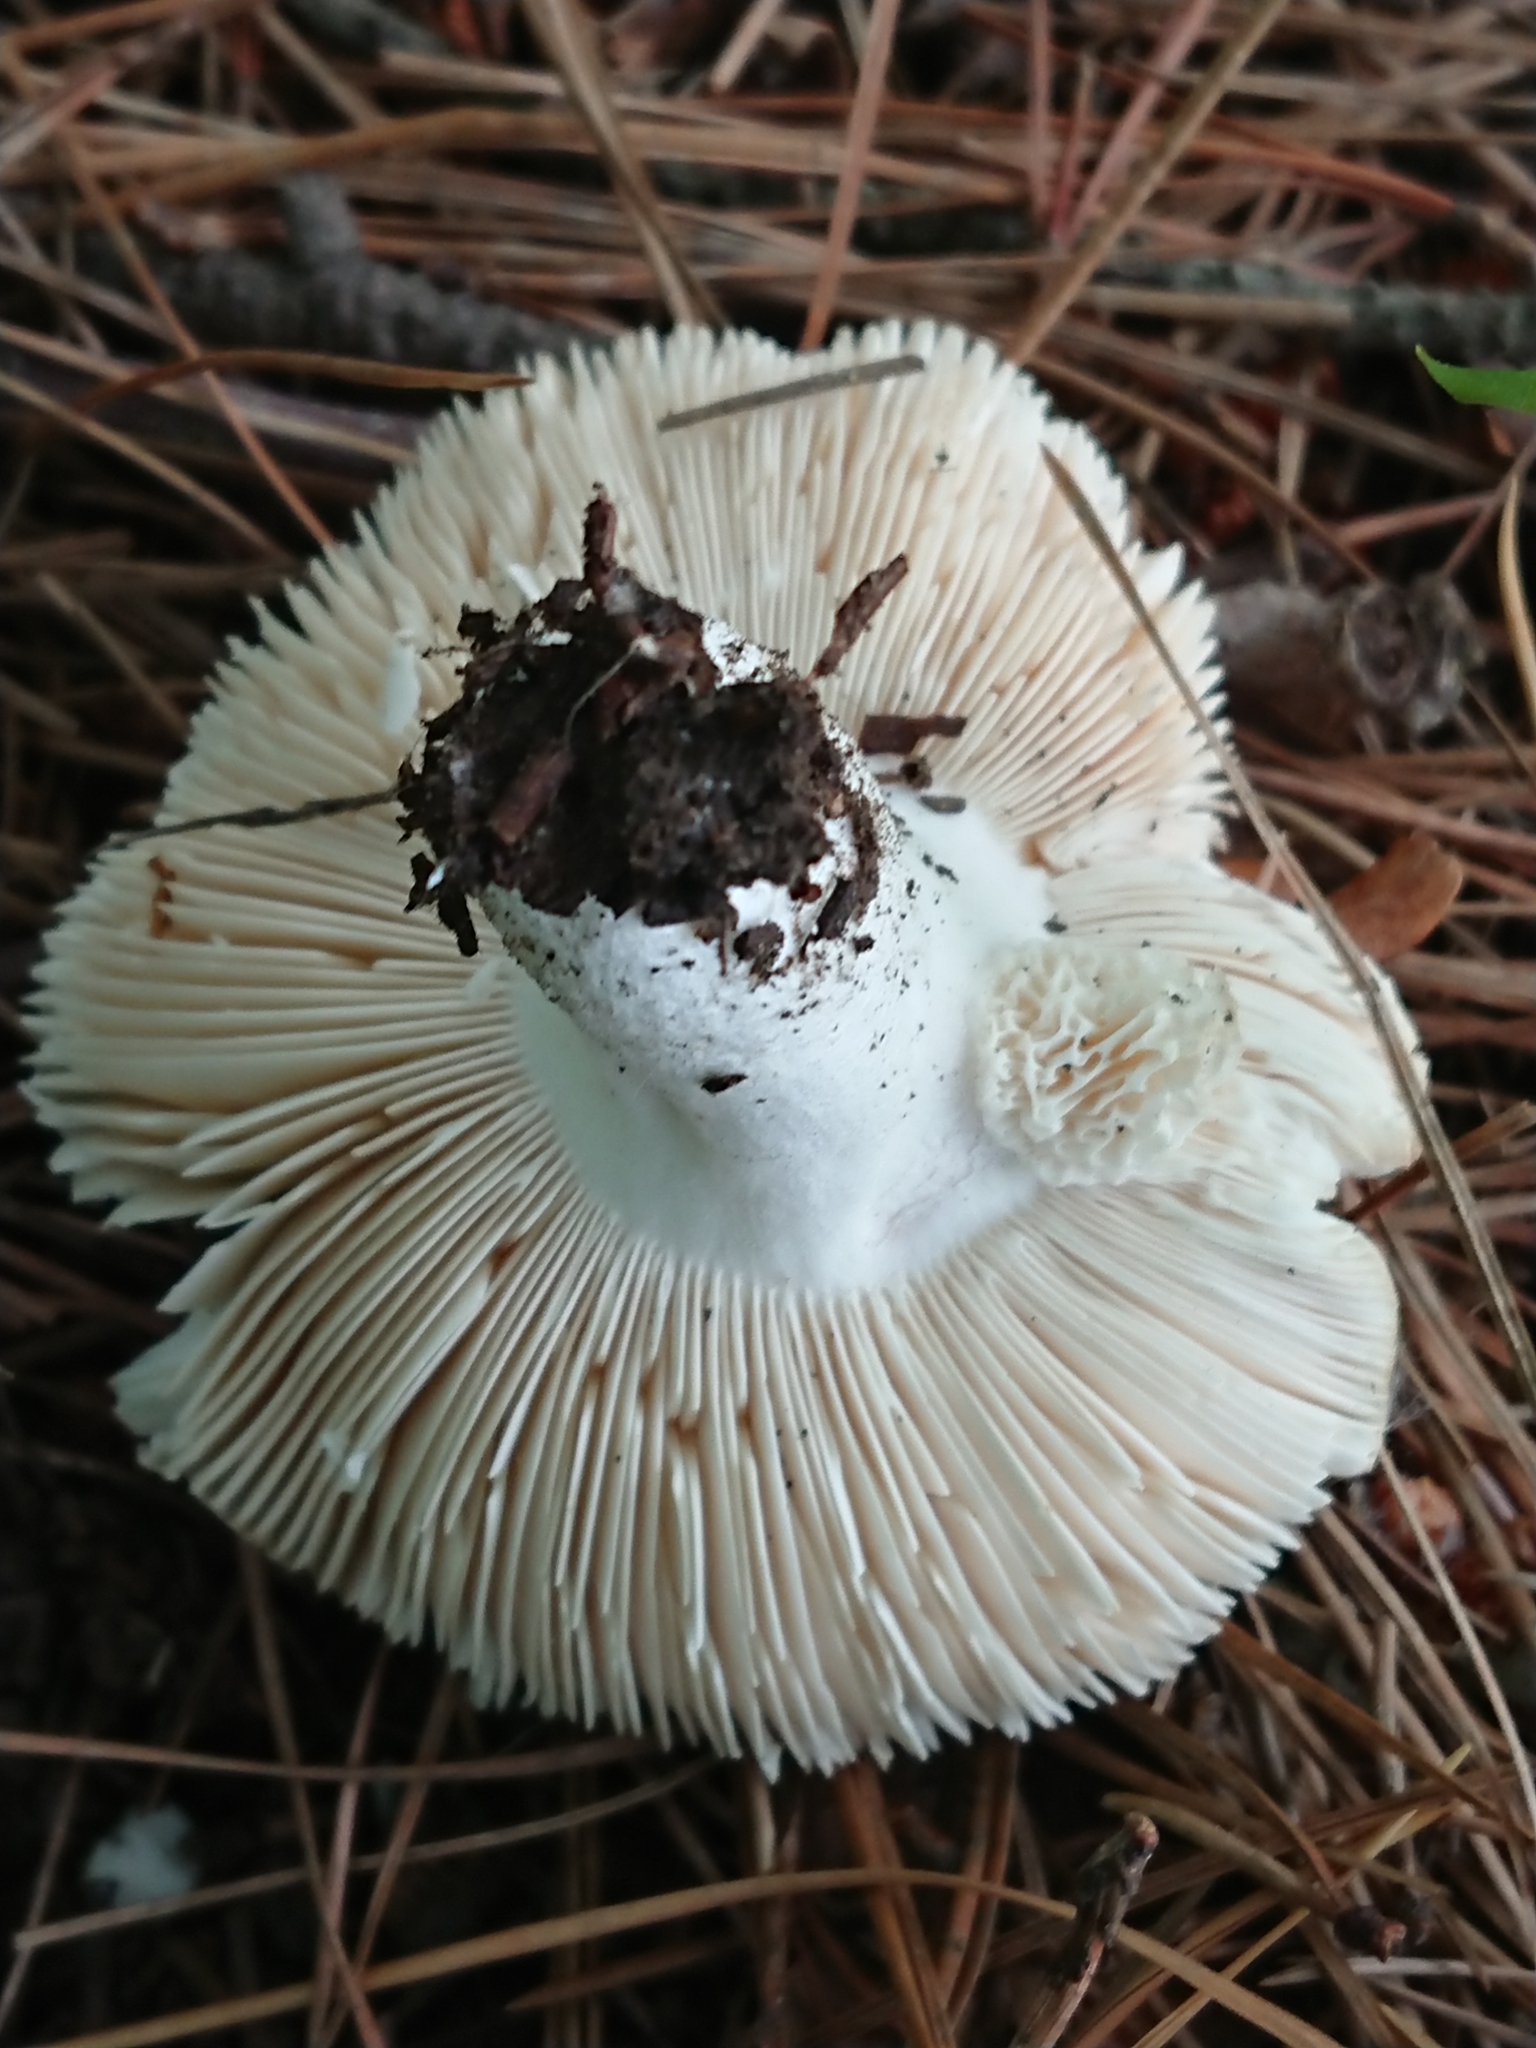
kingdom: Fungi
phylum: Basidiomycota
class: Agaricomycetes
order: Russulales
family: Russulaceae
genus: Russula
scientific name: Russula grisea
